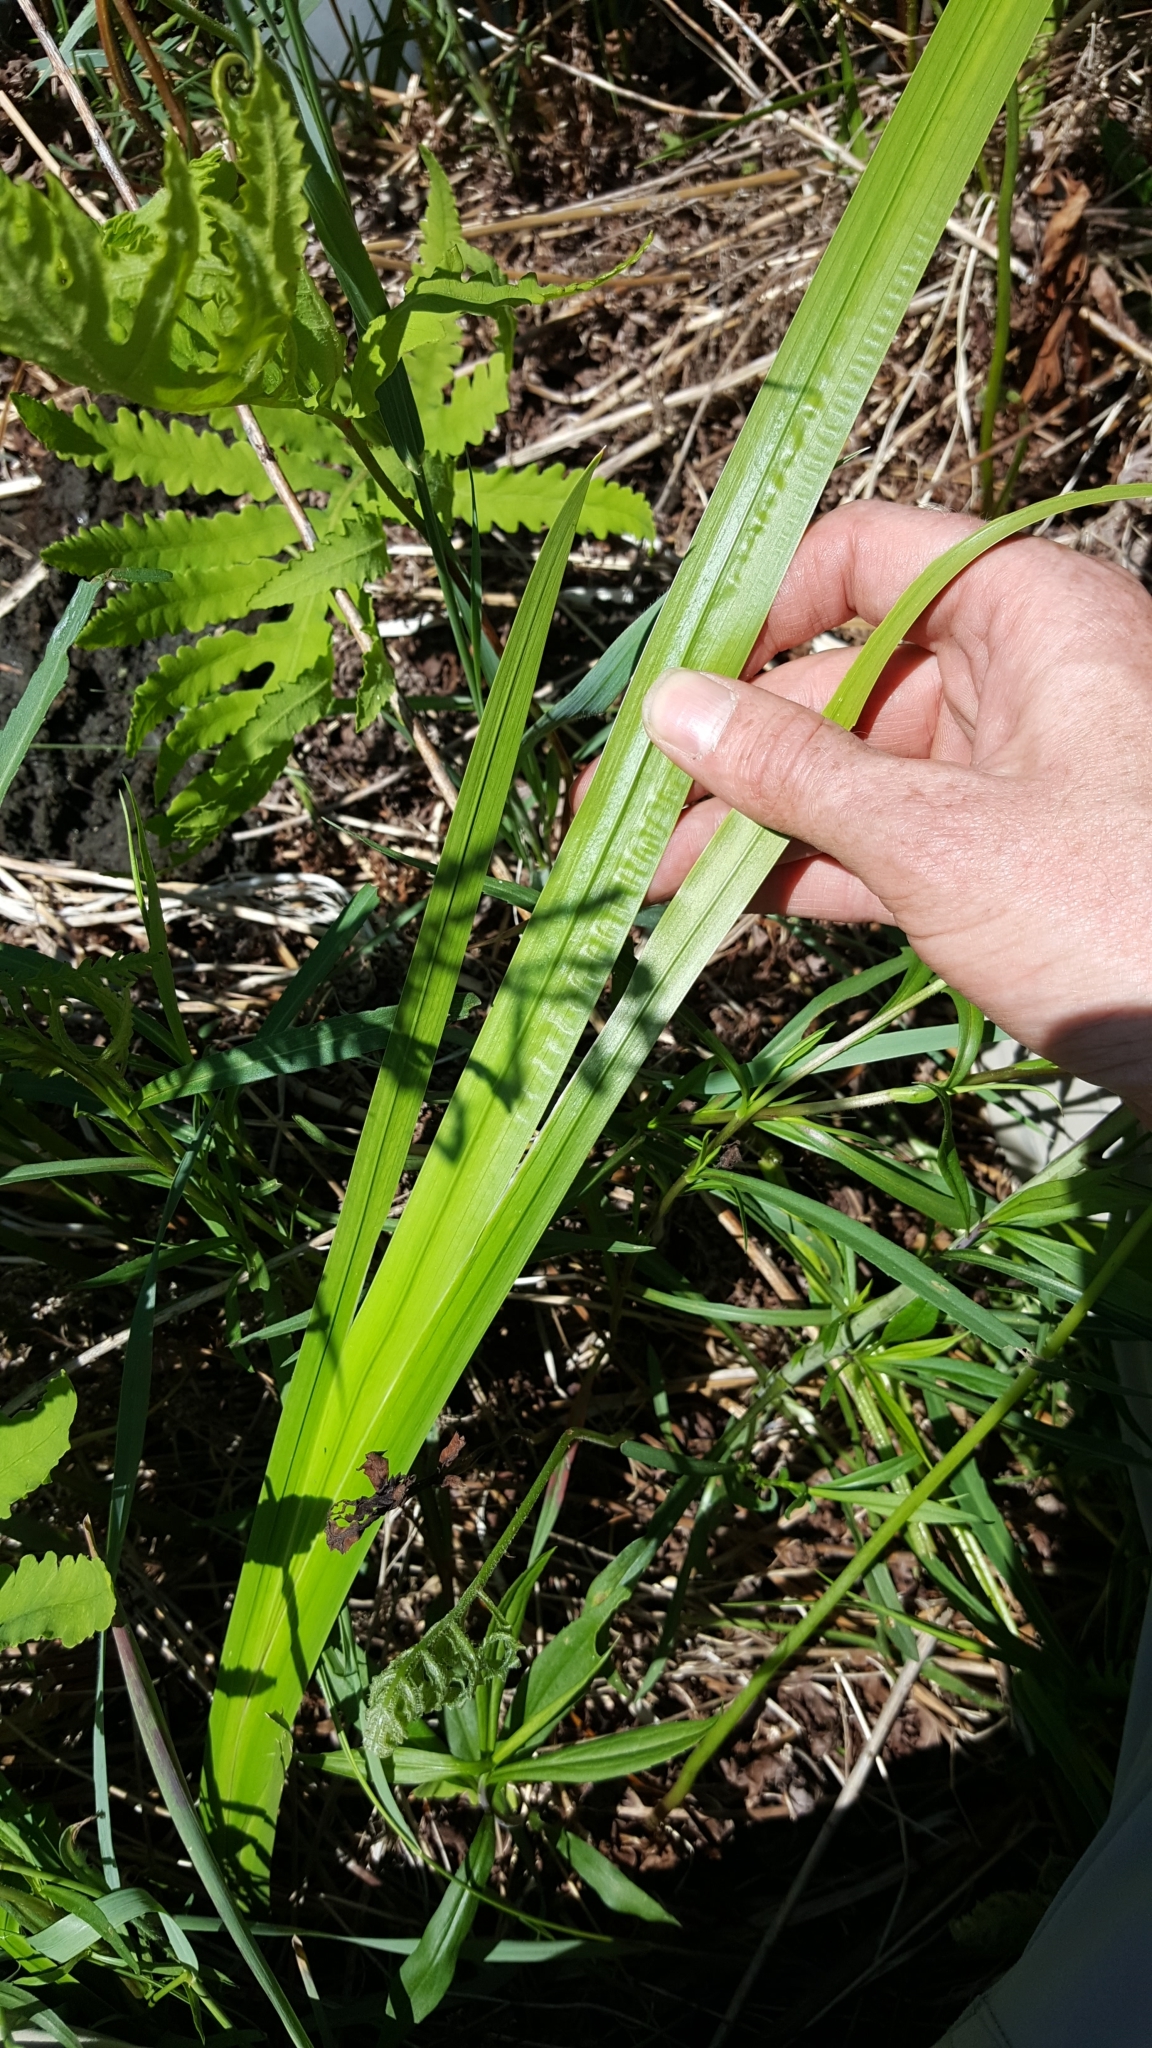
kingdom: Plantae
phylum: Tracheophyta
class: Liliopsida
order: Acorales
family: Acoraceae
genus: Acorus
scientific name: Acorus calamus
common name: Sweet-flag
